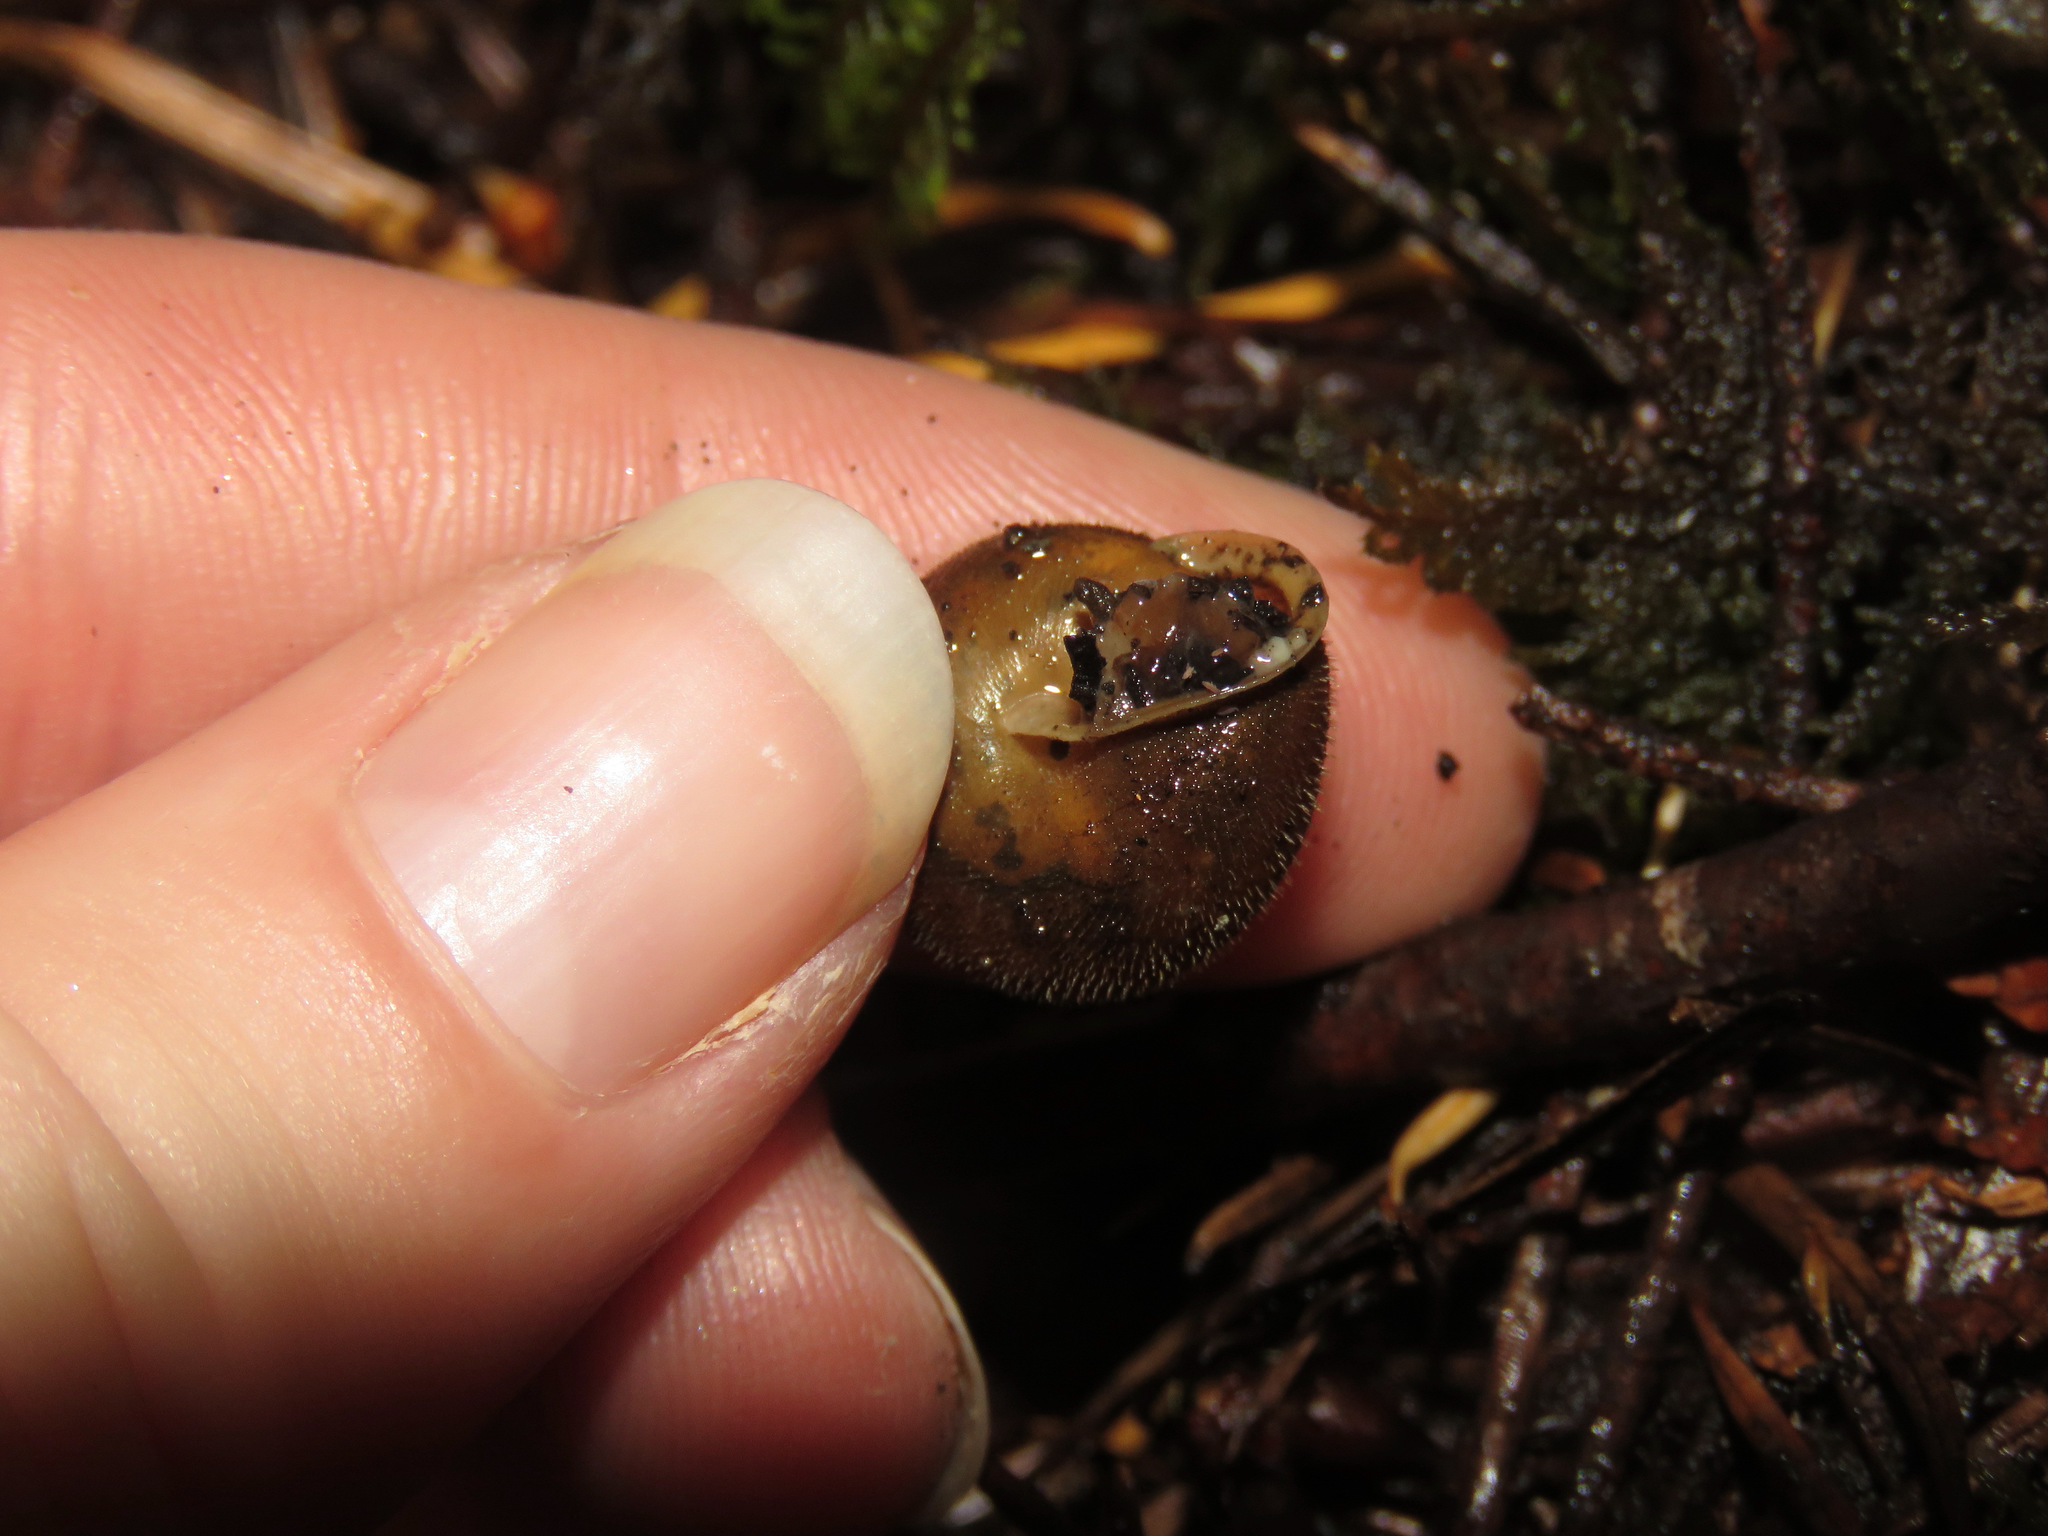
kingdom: Animalia
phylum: Mollusca
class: Gastropoda
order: Stylommatophora
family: Polygyridae
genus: Vespericola
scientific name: Vespericola columbianus
